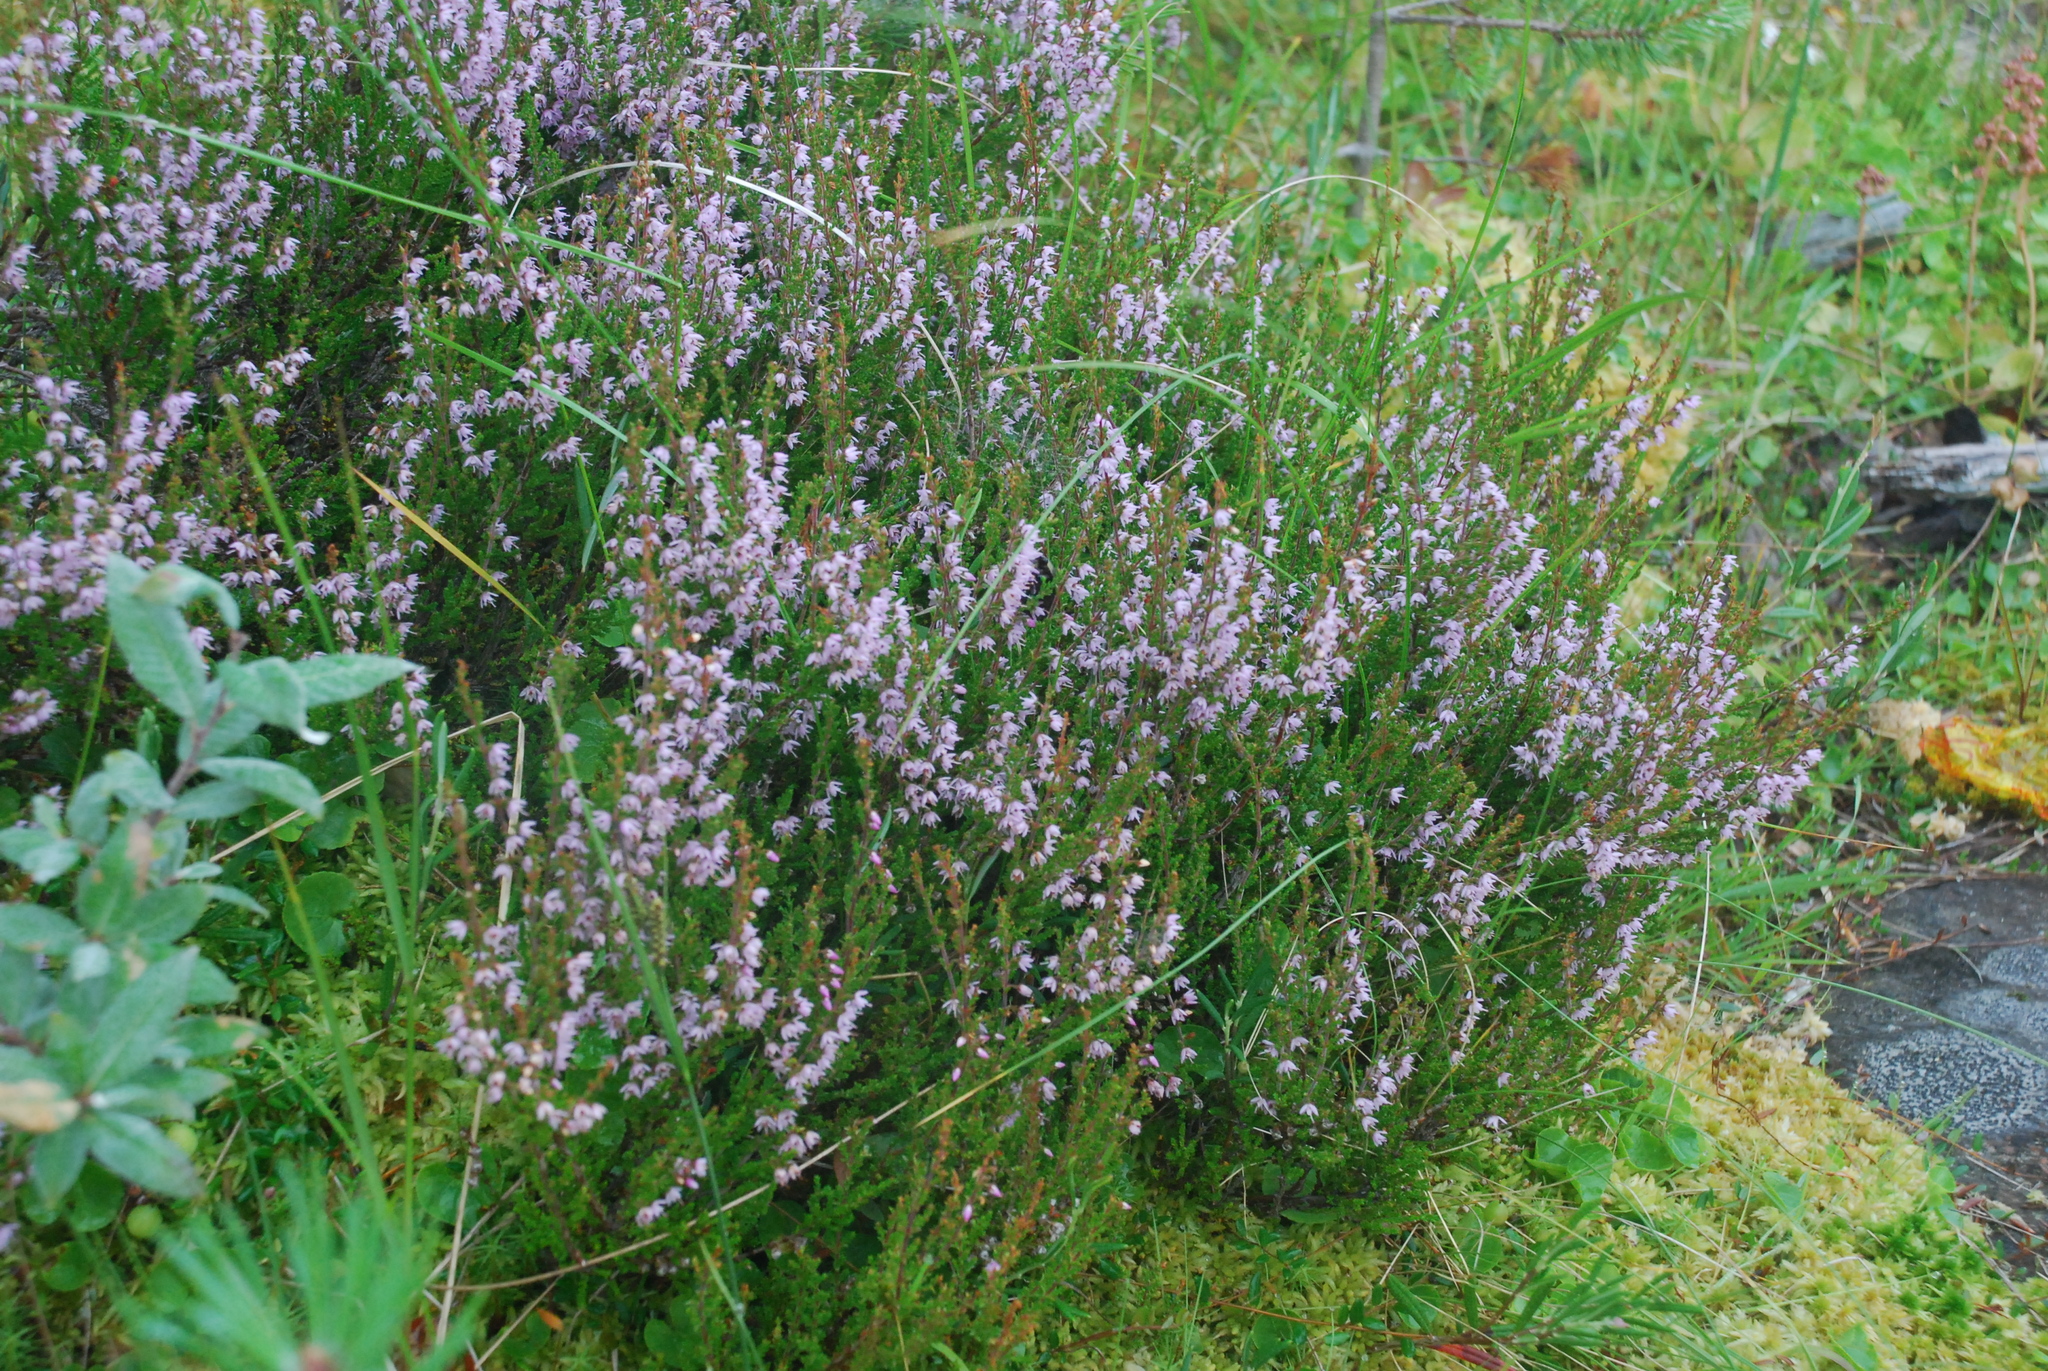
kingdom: Plantae
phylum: Tracheophyta
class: Magnoliopsida
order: Ericales
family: Ericaceae
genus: Calluna
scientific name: Calluna vulgaris
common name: Heather
